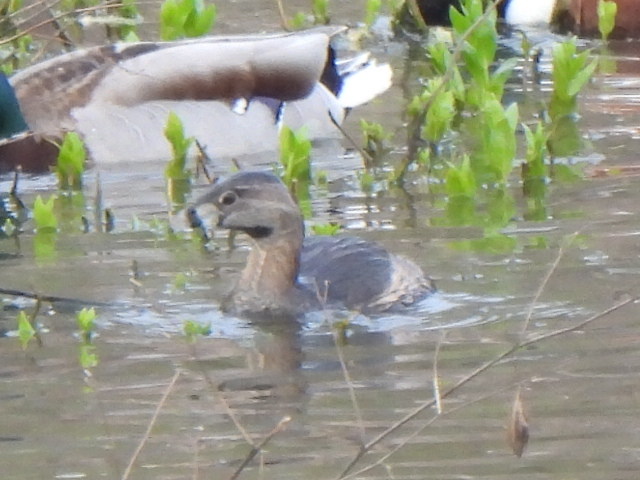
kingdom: Animalia
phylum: Chordata
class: Aves
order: Podicipediformes
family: Podicipedidae
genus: Podilymbus
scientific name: Podilymbus podiceps
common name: Pied-billed grebe
